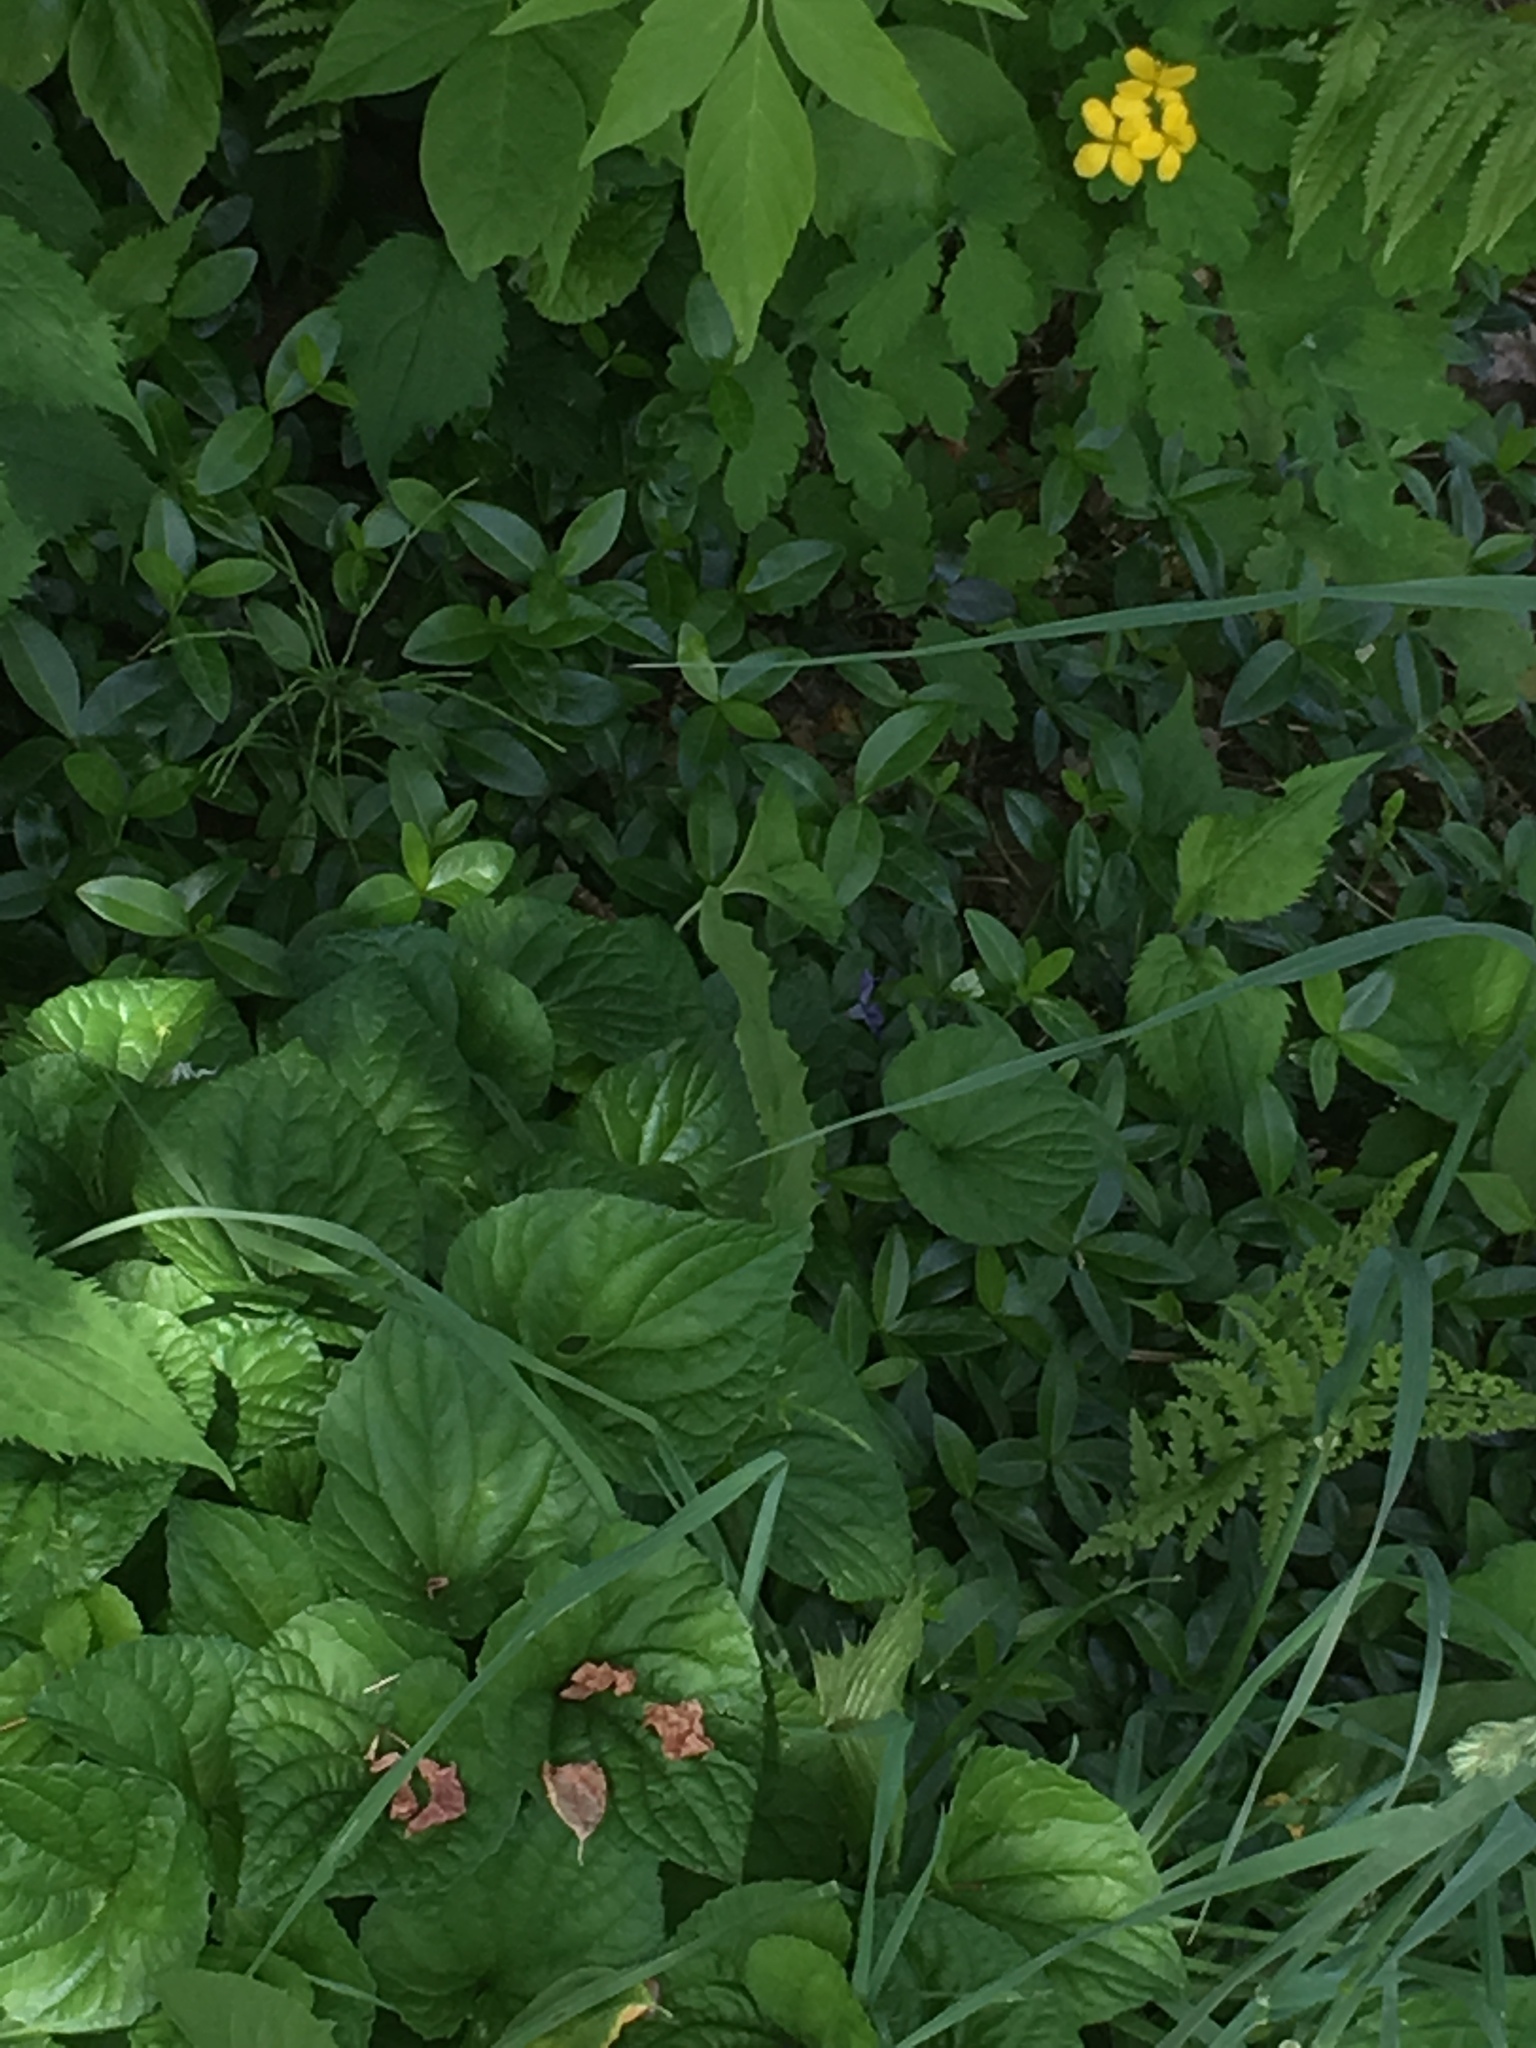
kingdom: Plantae
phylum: Tracheophyta
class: Magnoliopsida
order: Gentianales
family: Apocynaceae
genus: Vinca
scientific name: Vinca minor
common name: Lesser periwinkle
